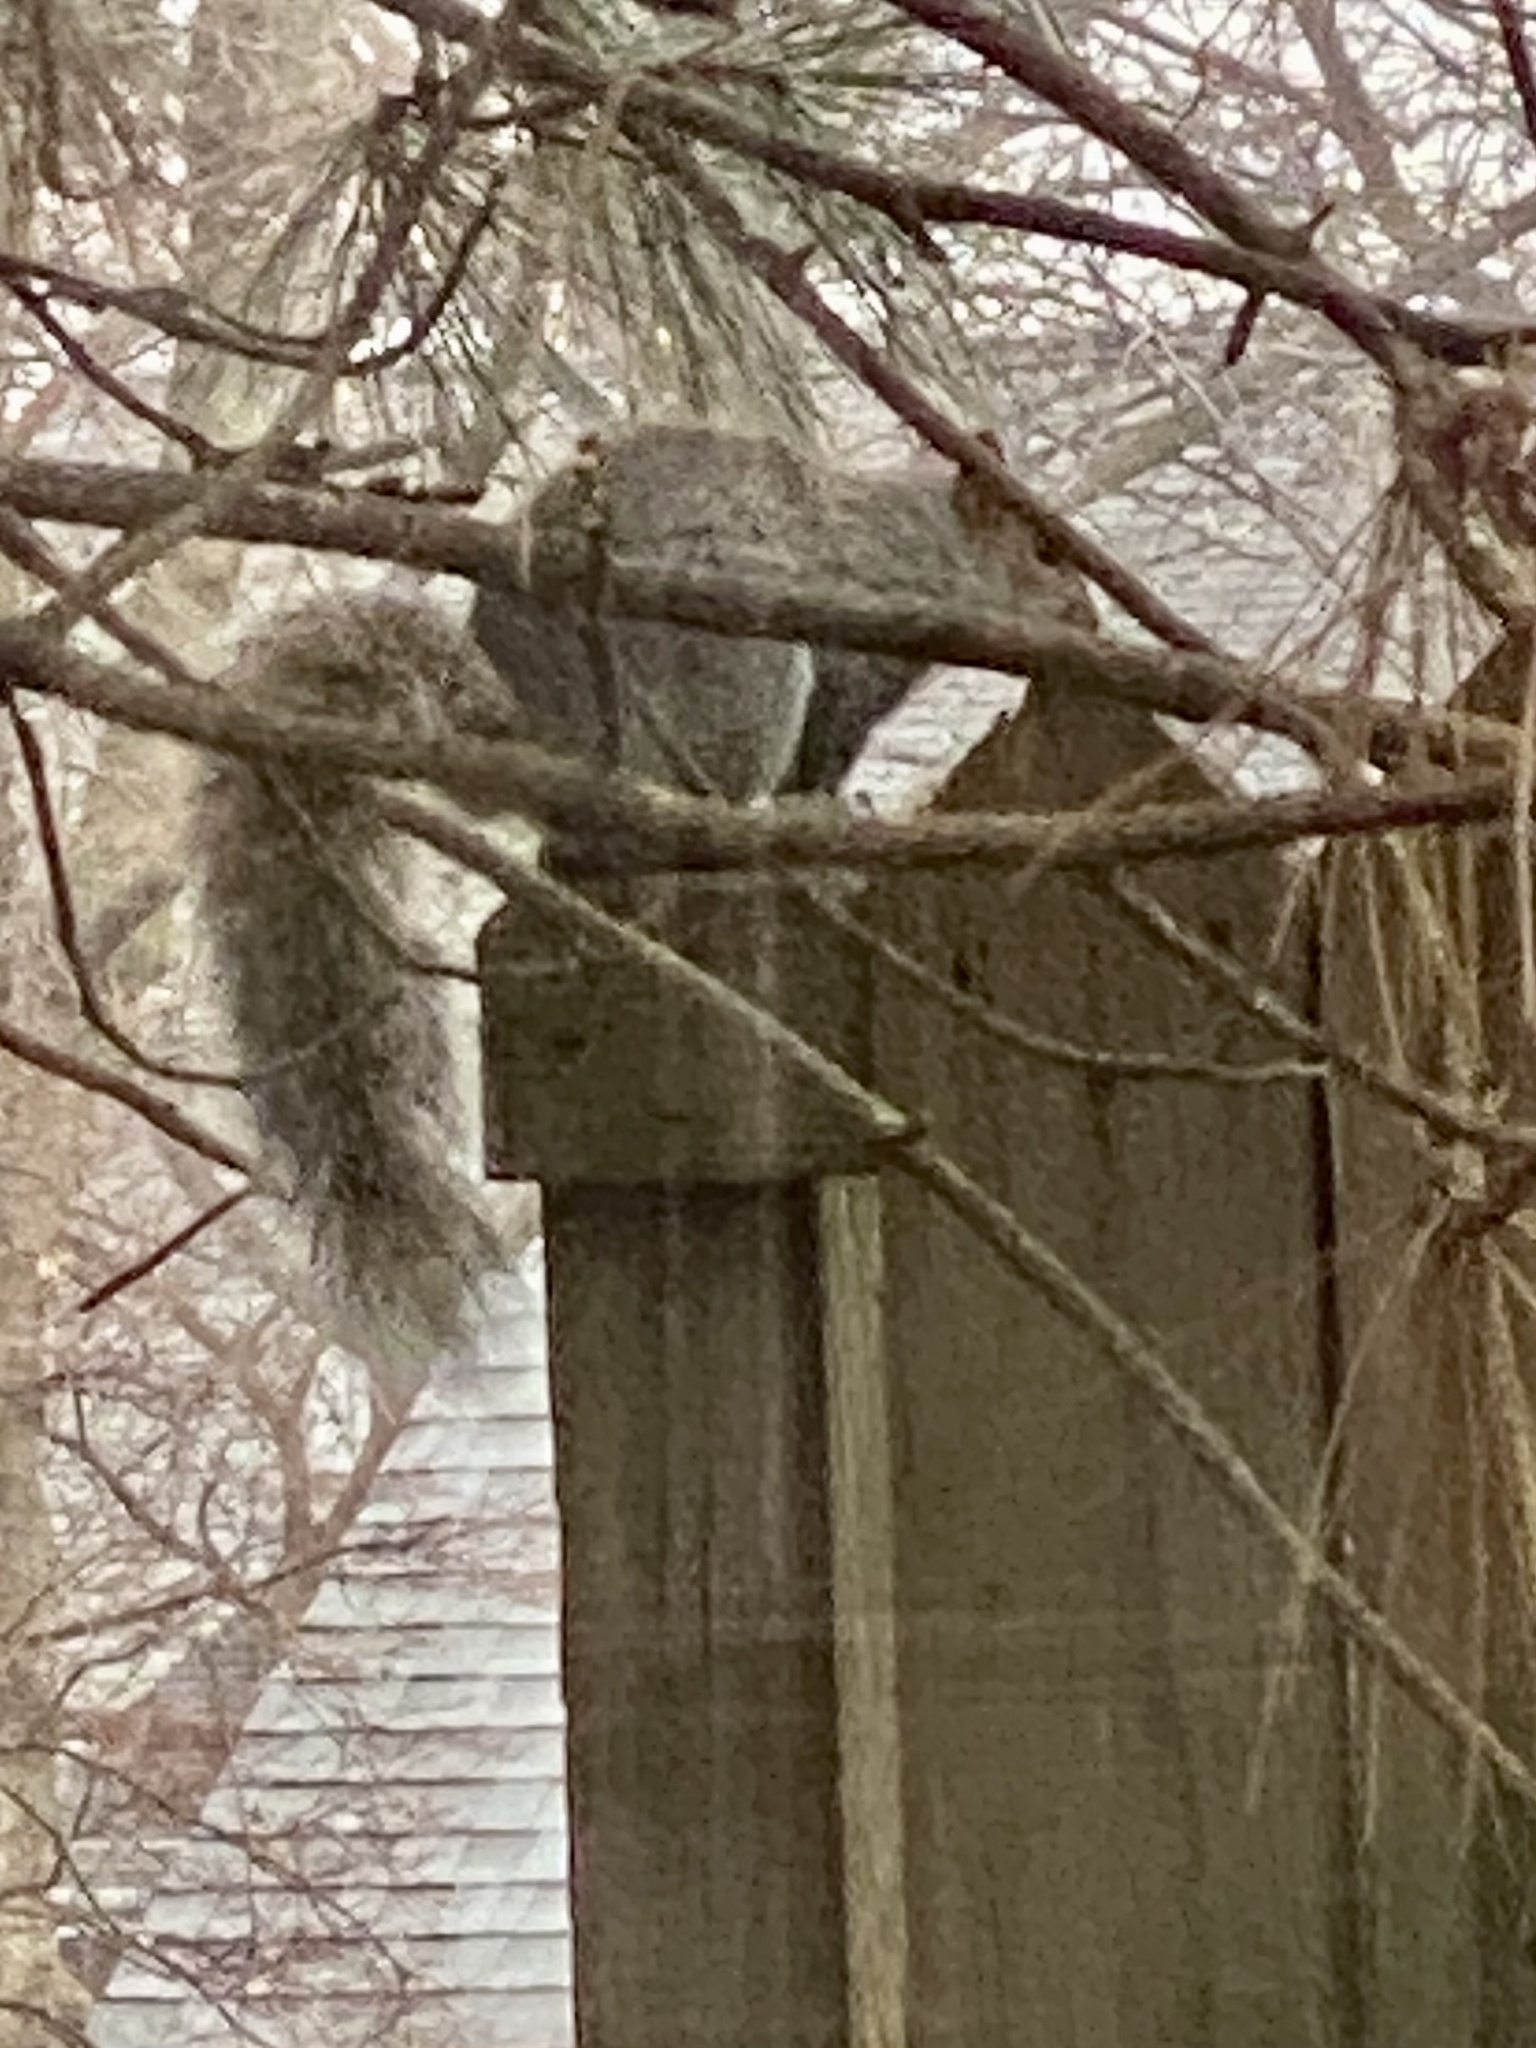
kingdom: Animalia
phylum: Chordata
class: Mammalia
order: Rodentia
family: Sciuridae
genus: Sciurus
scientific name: Sciurus carolinensis
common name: Eastern gray squirrel
